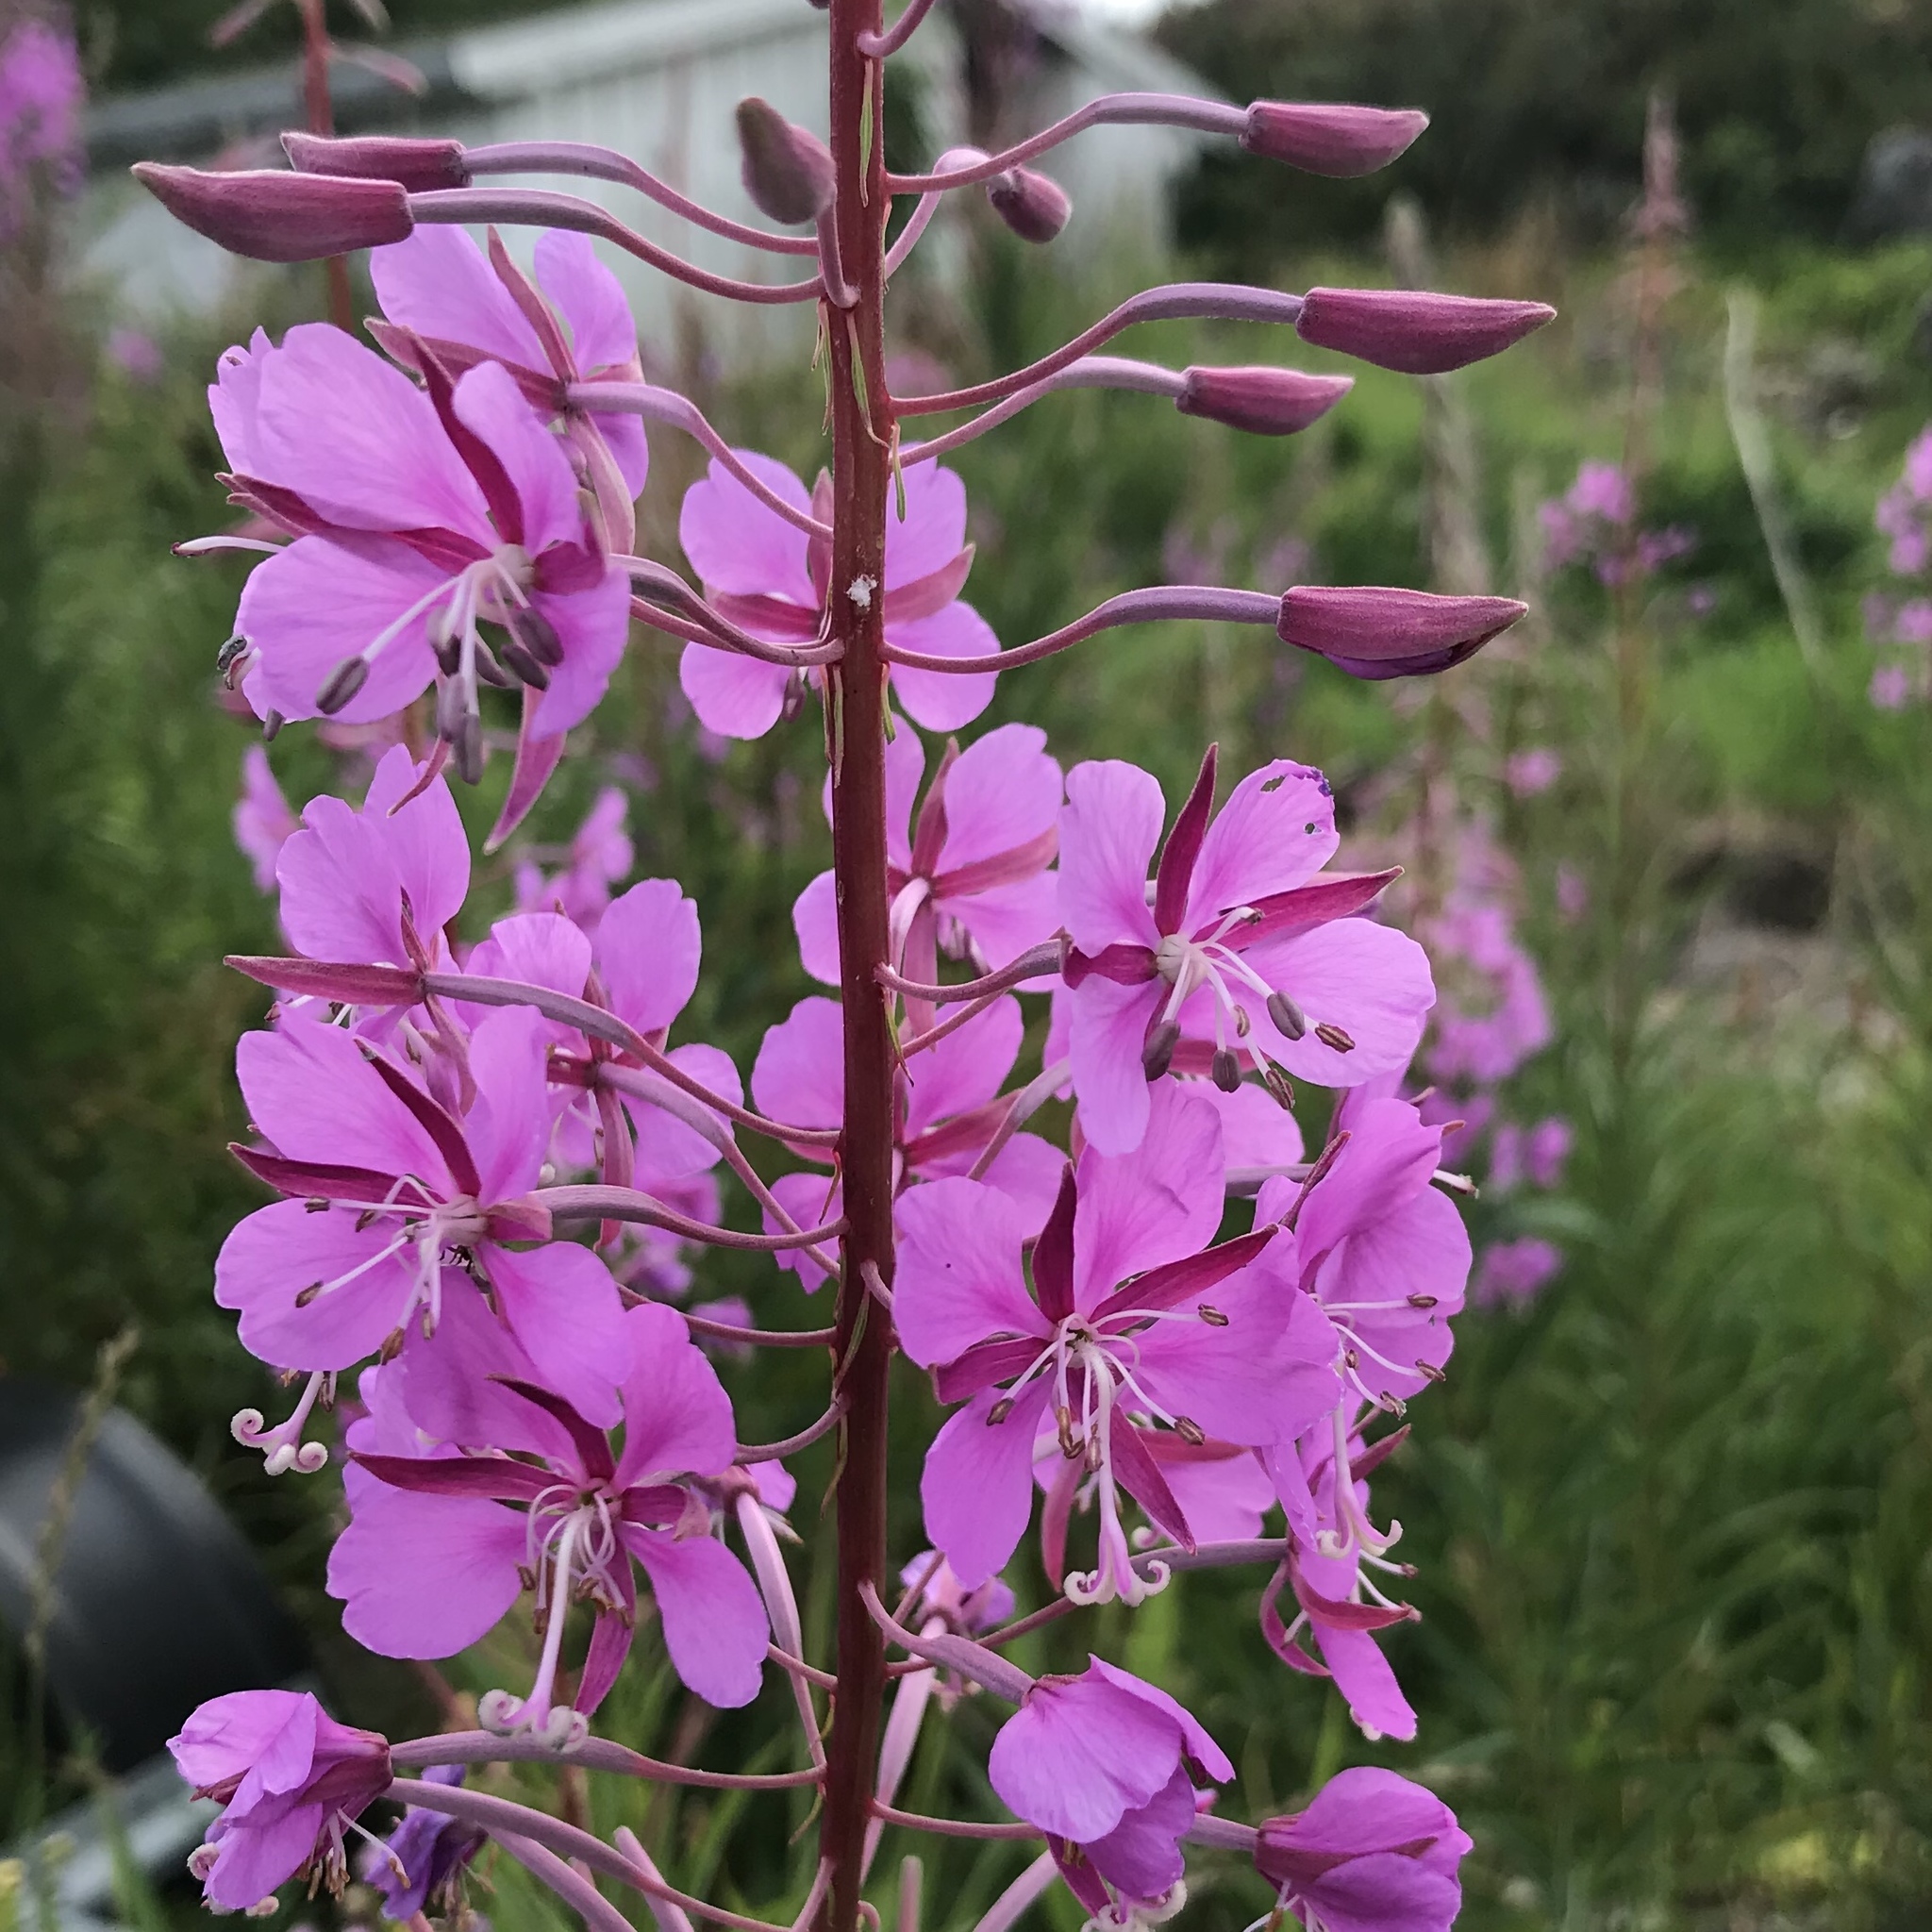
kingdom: Plantae
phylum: Tracheophyta
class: Magnoliopsida
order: Myrtales
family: Onagraceae
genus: Chamaenerion
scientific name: Chamaenerion angustifolium
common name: Fireweed
